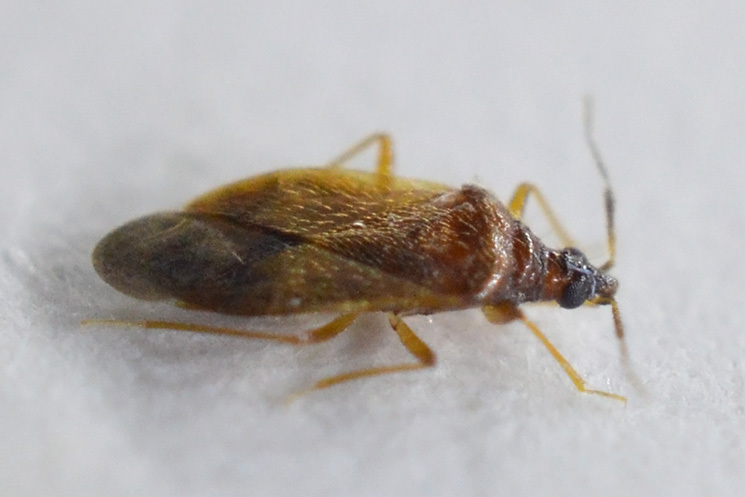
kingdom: Animalia
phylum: Arthropoda
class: Insecta
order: Hemiptera
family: Anthocoridae
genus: Amphiareus
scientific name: Amphiareus obscuriceps
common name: Minute pirate bug
